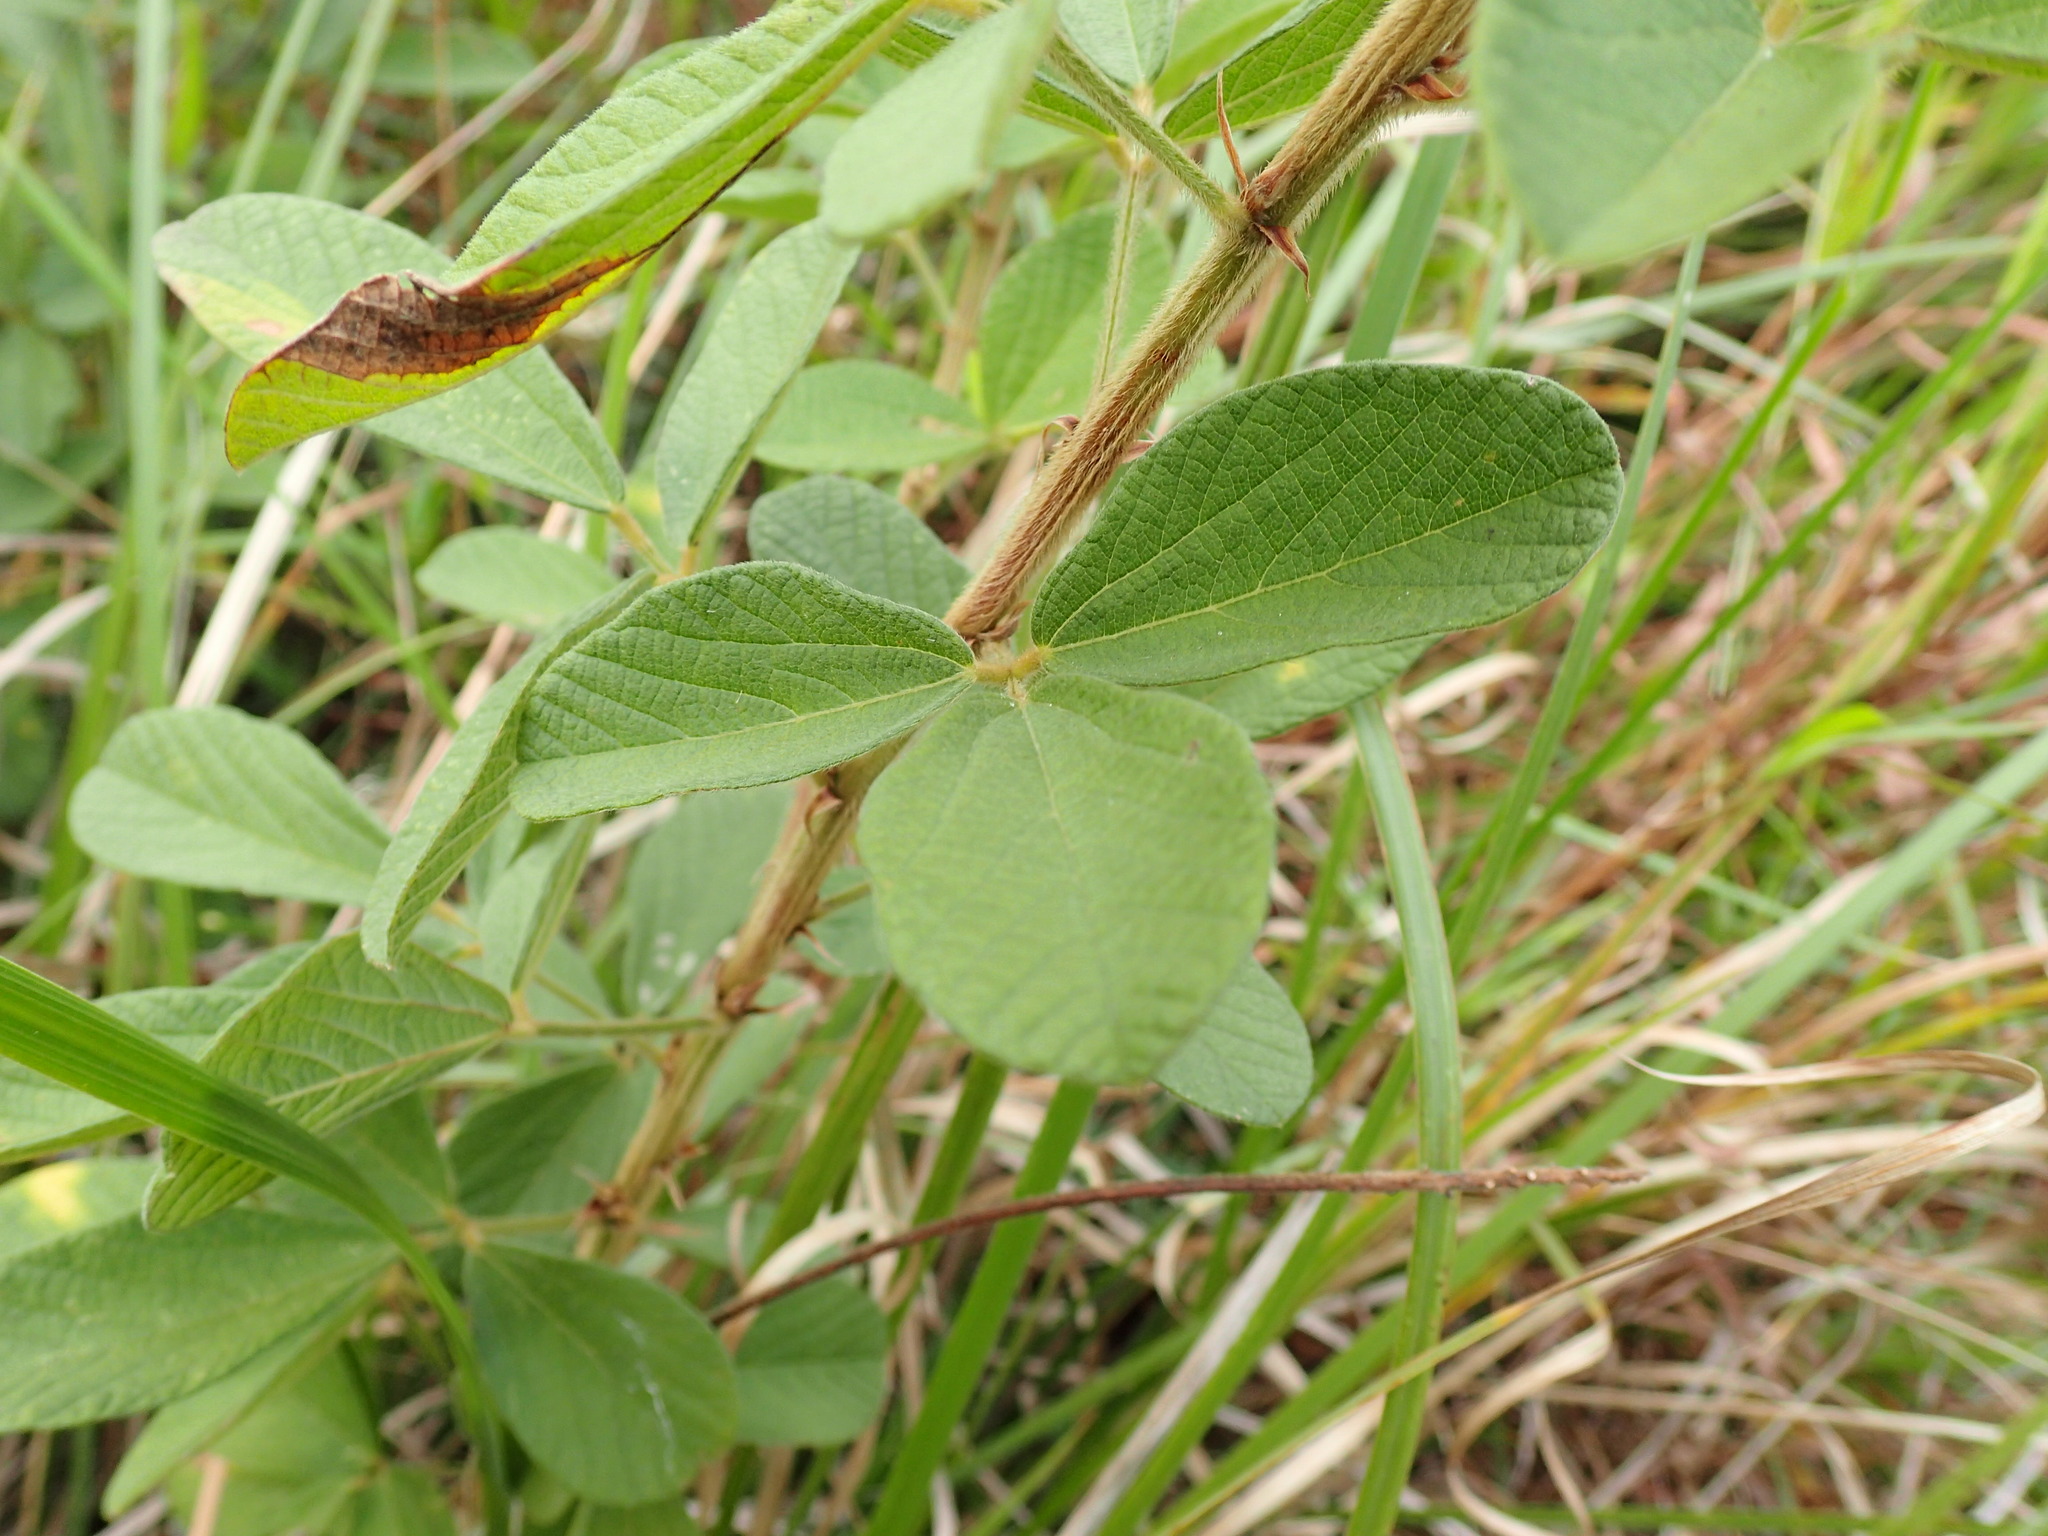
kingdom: Plantae
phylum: Tracheophyta
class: Magnoliopsida
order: Fabales
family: Fabaceae
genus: Eriosema
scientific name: Eriosema parviflorum
